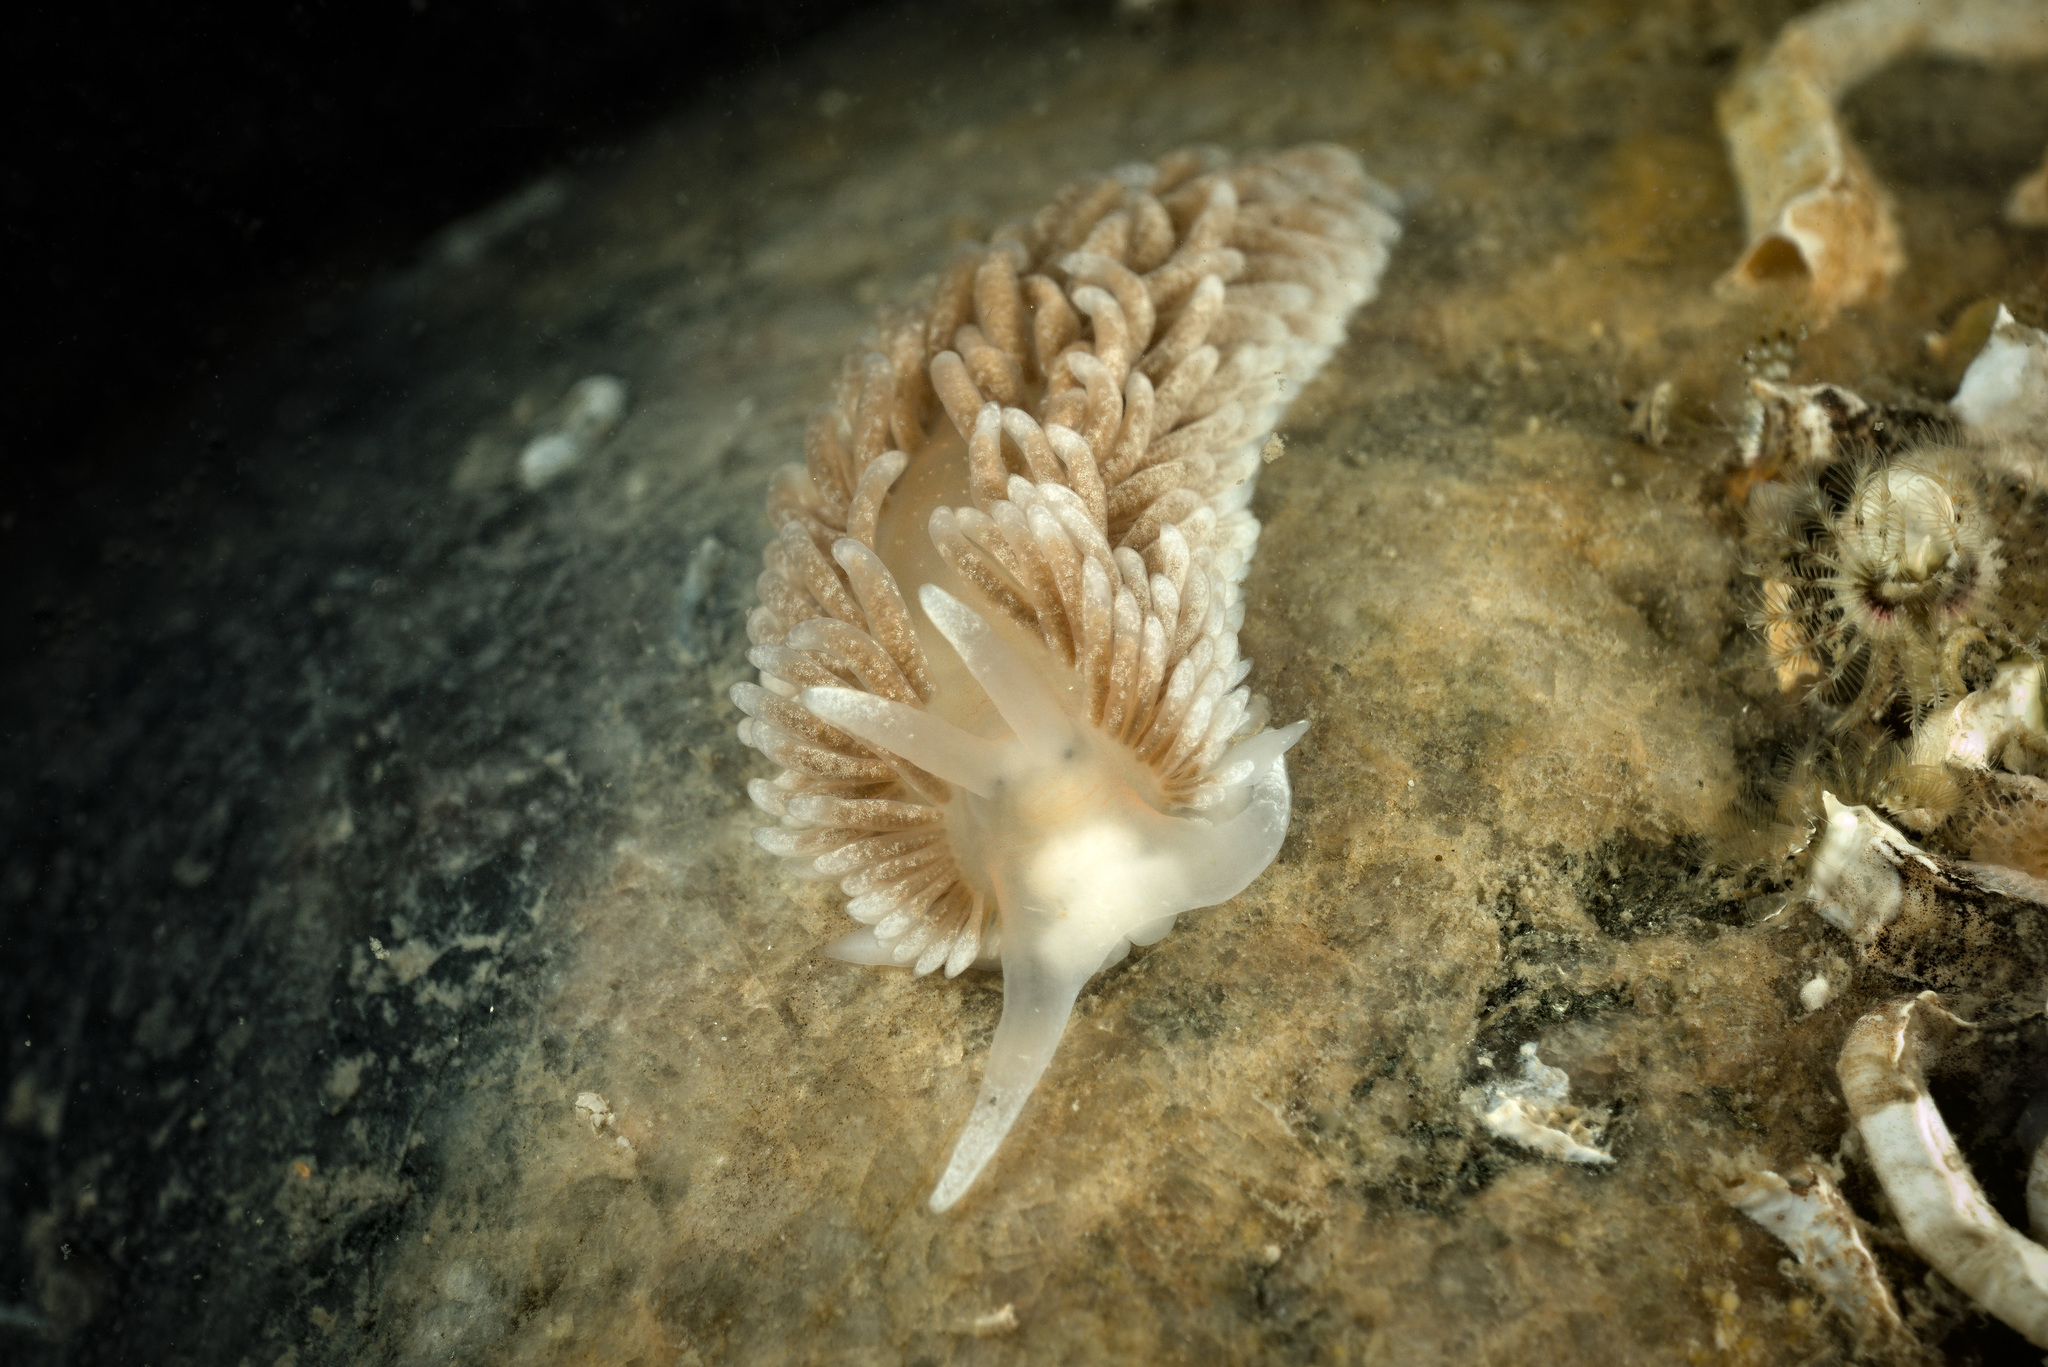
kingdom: Animalia
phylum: Mollusca
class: Gastropoda
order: Nudibranchia
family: Aeolidiidae
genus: Aeolidiella
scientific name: Aeolidiella glauca
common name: Orange-brown aeolid
